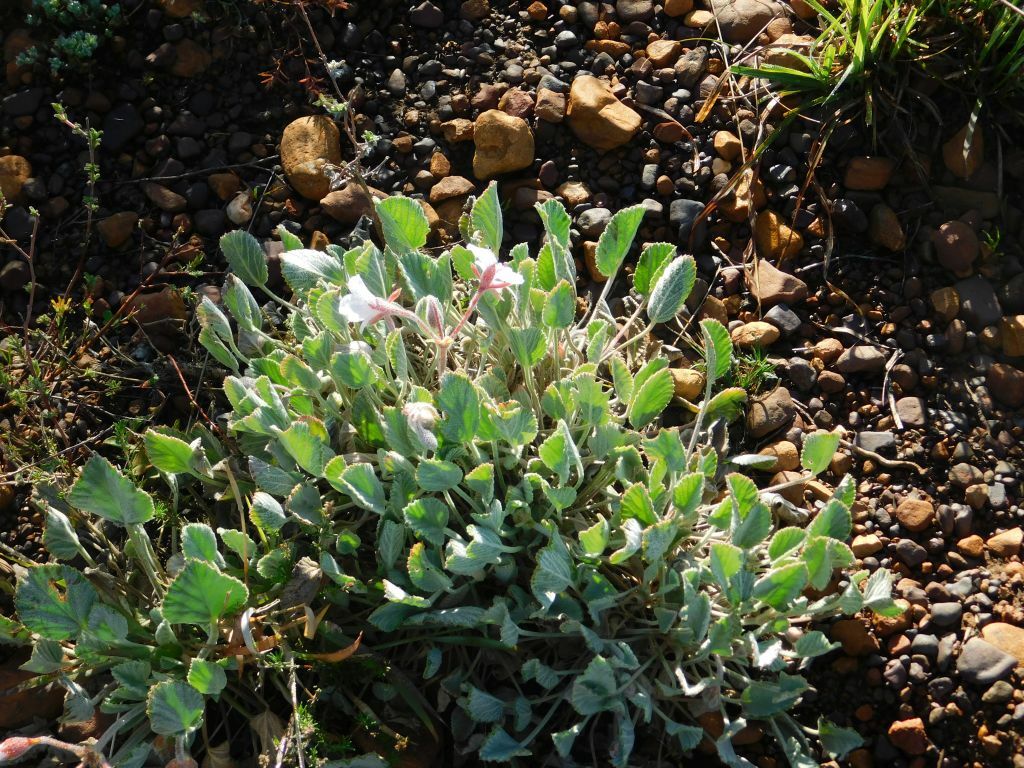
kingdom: Plantae
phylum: Tracheophyta
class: Magnoliopsida
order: Geraniales
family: Geraniaceae
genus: Pelargonium
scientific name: Pelargonium ovale
